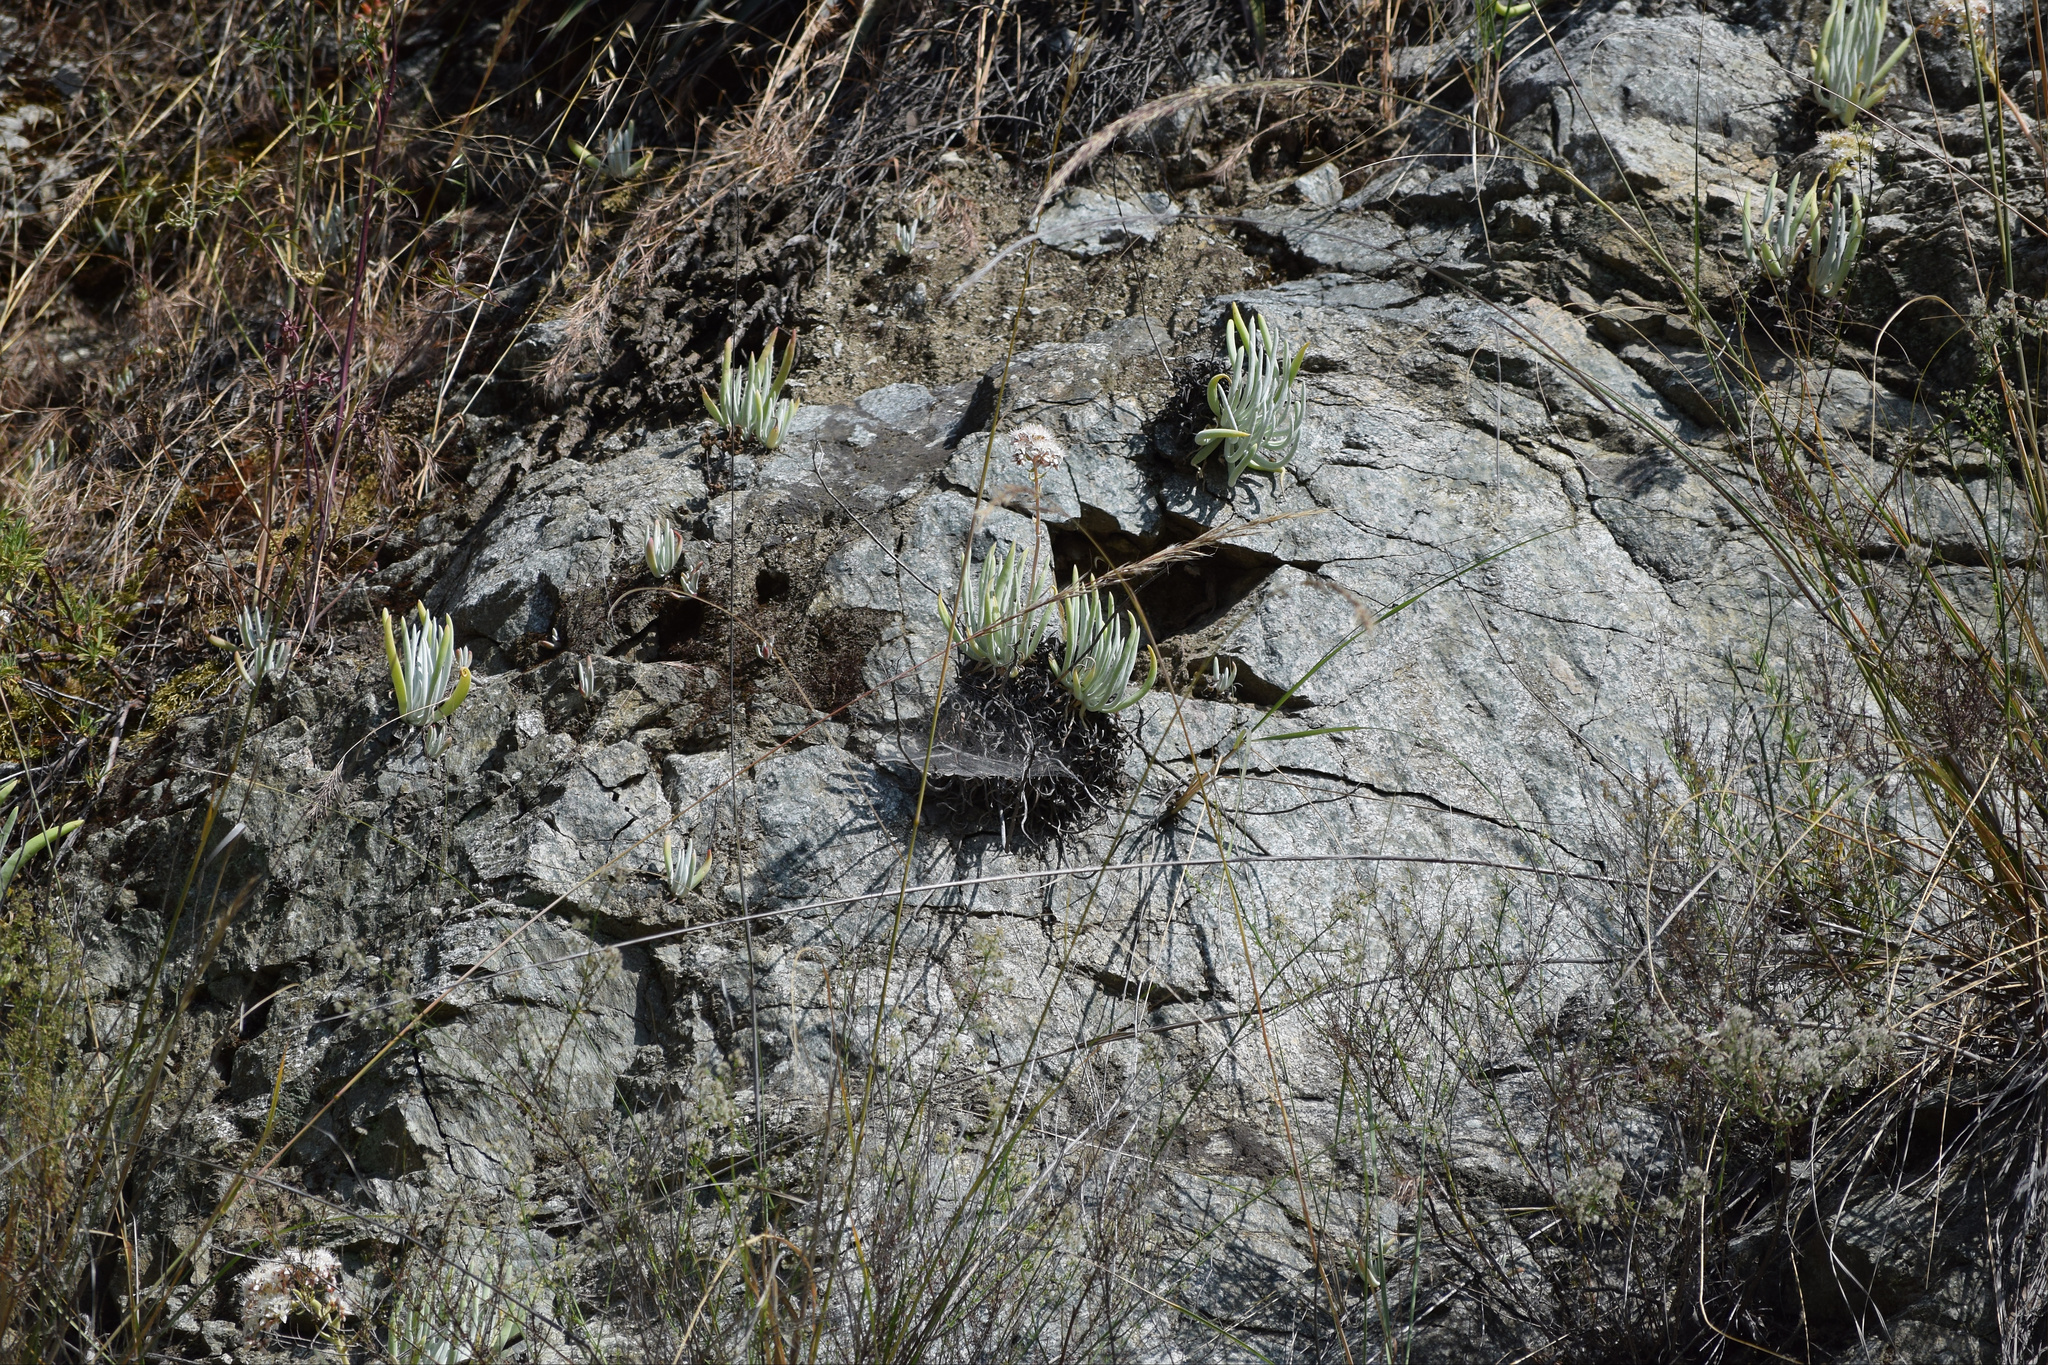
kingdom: Plantae
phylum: Tracheophyta
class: Magnoliopsida
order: Saxifragales
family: Crassulaceae
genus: Dudleya
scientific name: Dudleya densiflora
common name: San gabriel mountains dudleya
